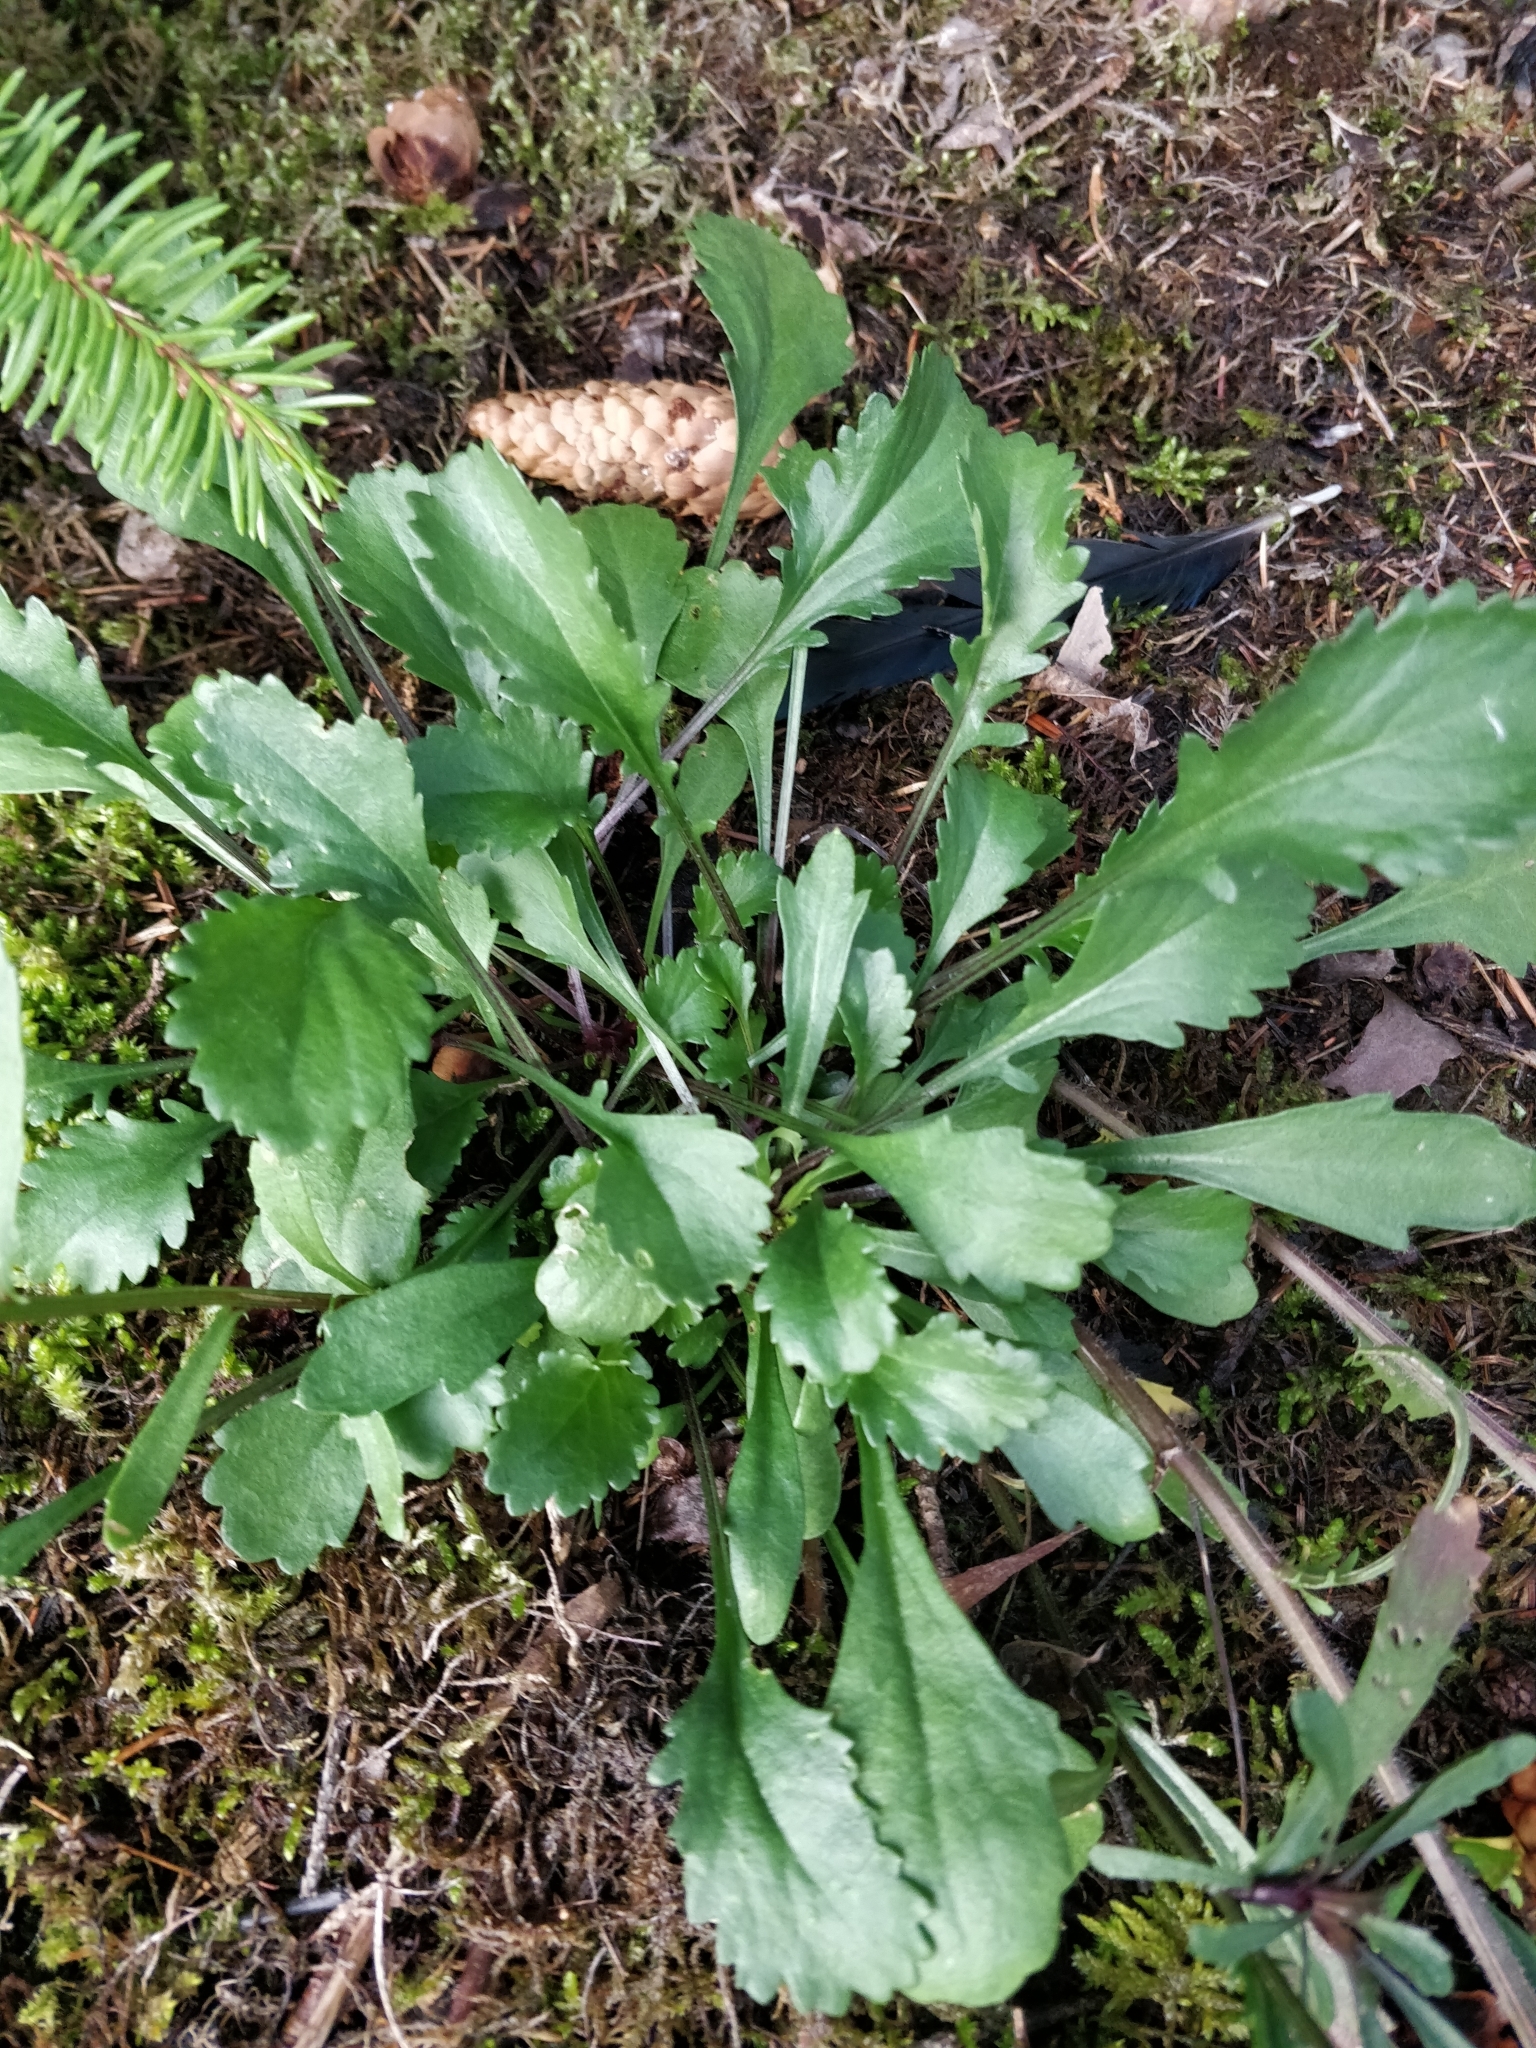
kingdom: Plantae
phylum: Tracheophyta
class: Magnoliopsida
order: Asterales
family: Asteraceae
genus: Leucanthemum
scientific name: Leucanthemum vulgare
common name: Oxeye daisy
